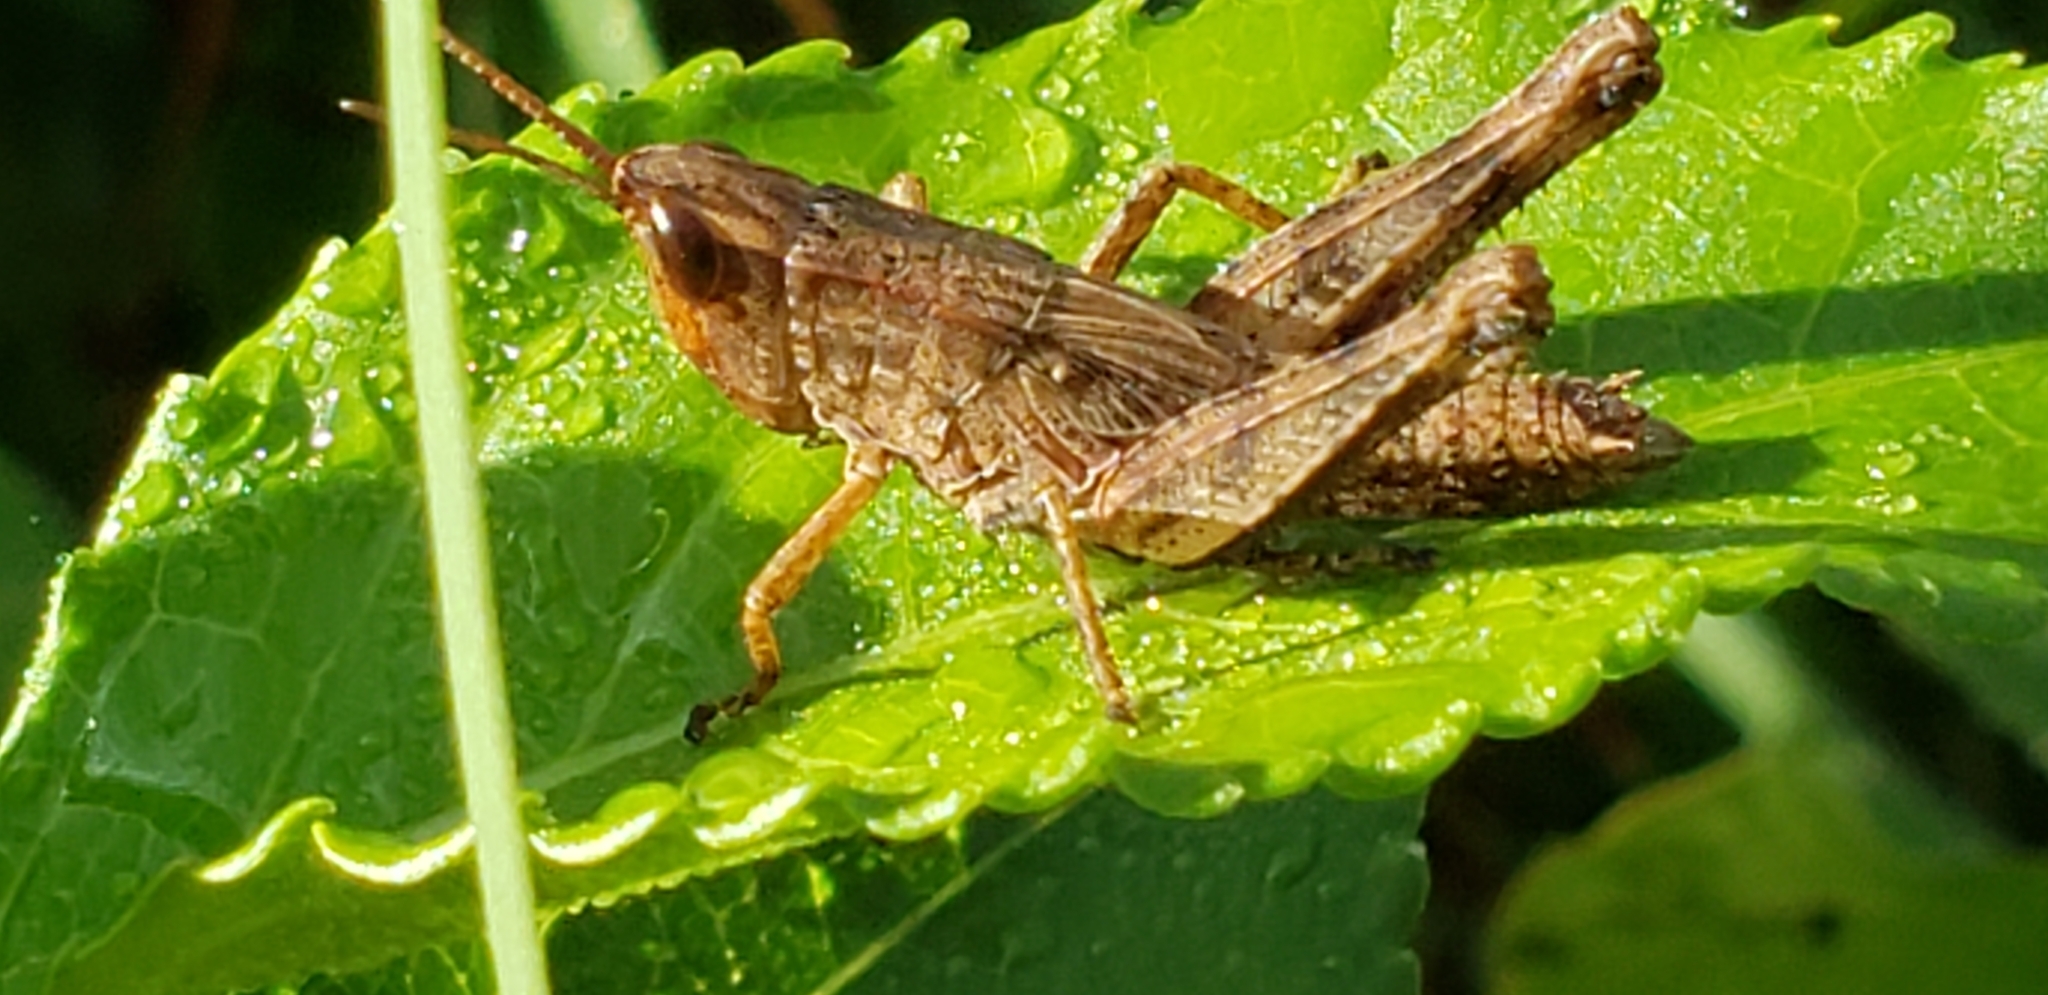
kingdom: Animalia
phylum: Arthropoda
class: Insecta
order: Orthoptera
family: Acrididae
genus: Dichromorpha
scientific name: Dichromorpha viridis
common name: Short-winged green grasshopper
